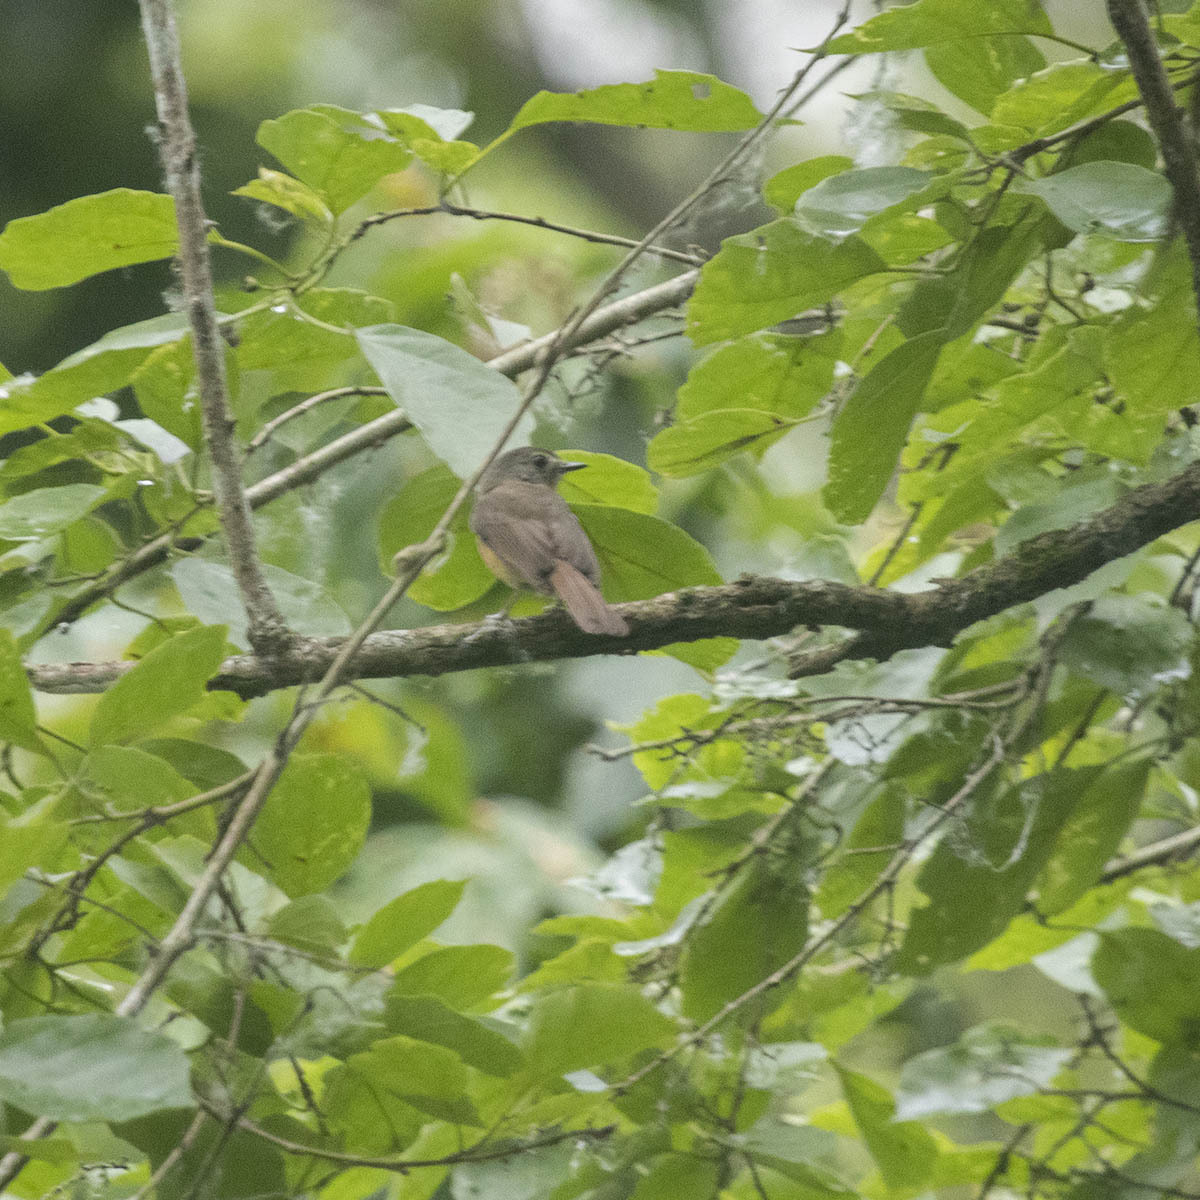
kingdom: Animalia
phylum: Chordata
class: Aves
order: Passeriformes
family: Muscicapidae
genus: Muscicapa
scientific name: Muscicapa ferruginea
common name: Ferruginous flycatcher
